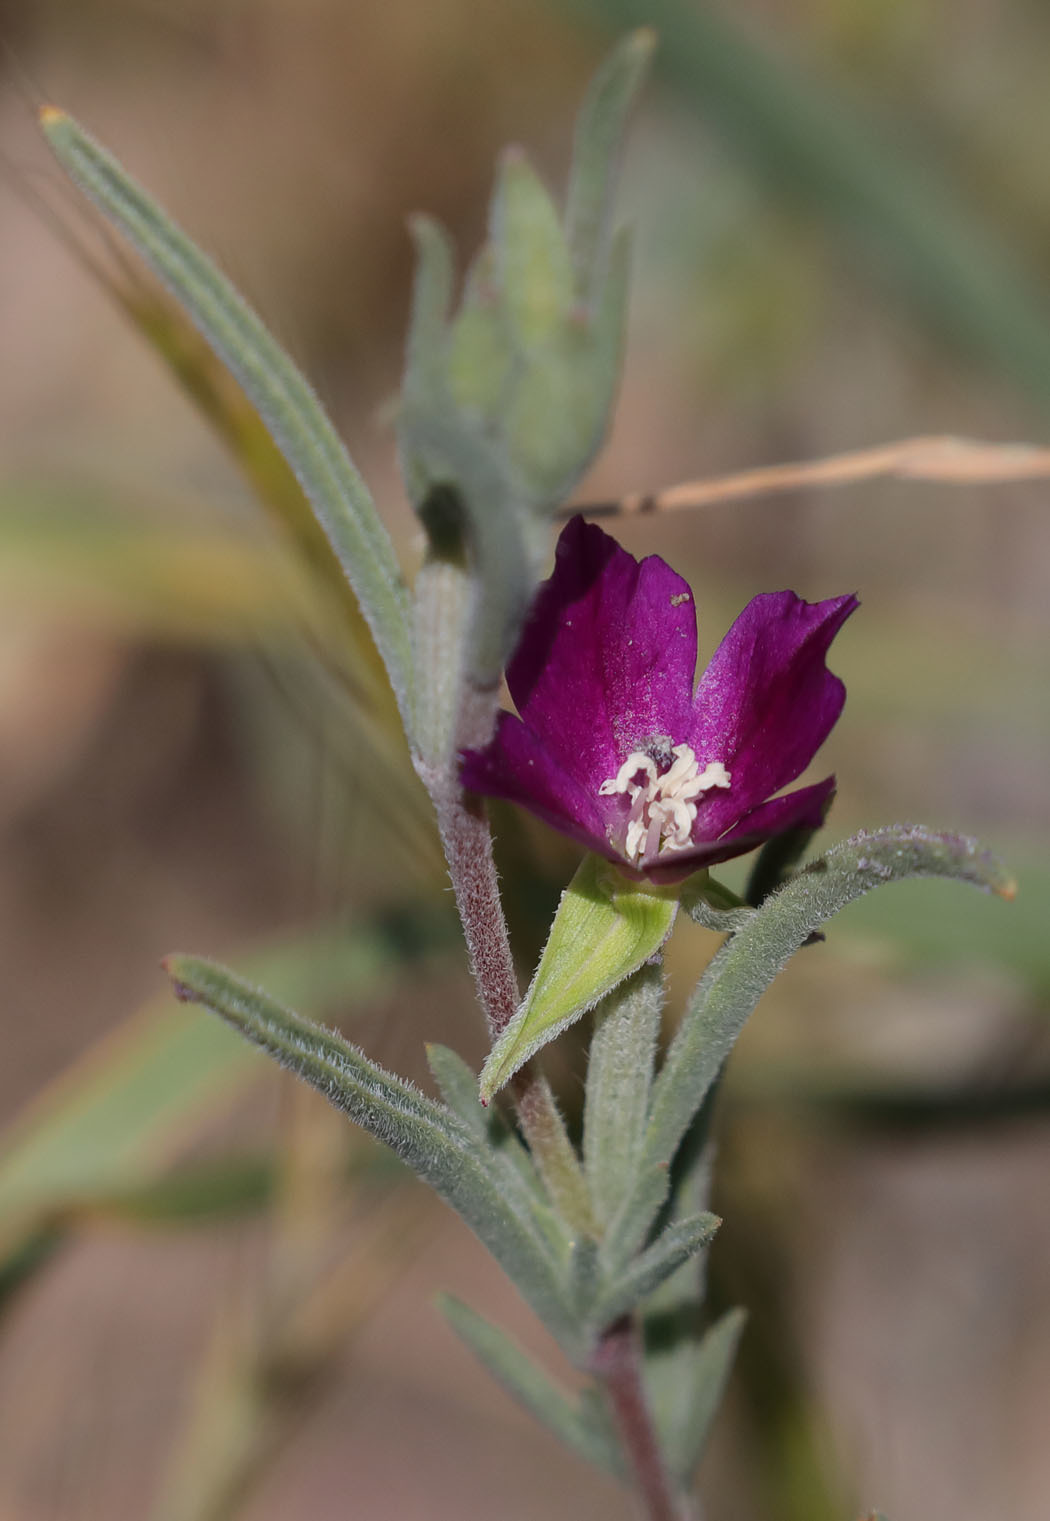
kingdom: Plantae
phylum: Tracheophyta
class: Magnoliopsida
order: Myrtales
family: Onagraceae
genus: Clarkia
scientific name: Clarkia purpurea
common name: Purple clarkia
